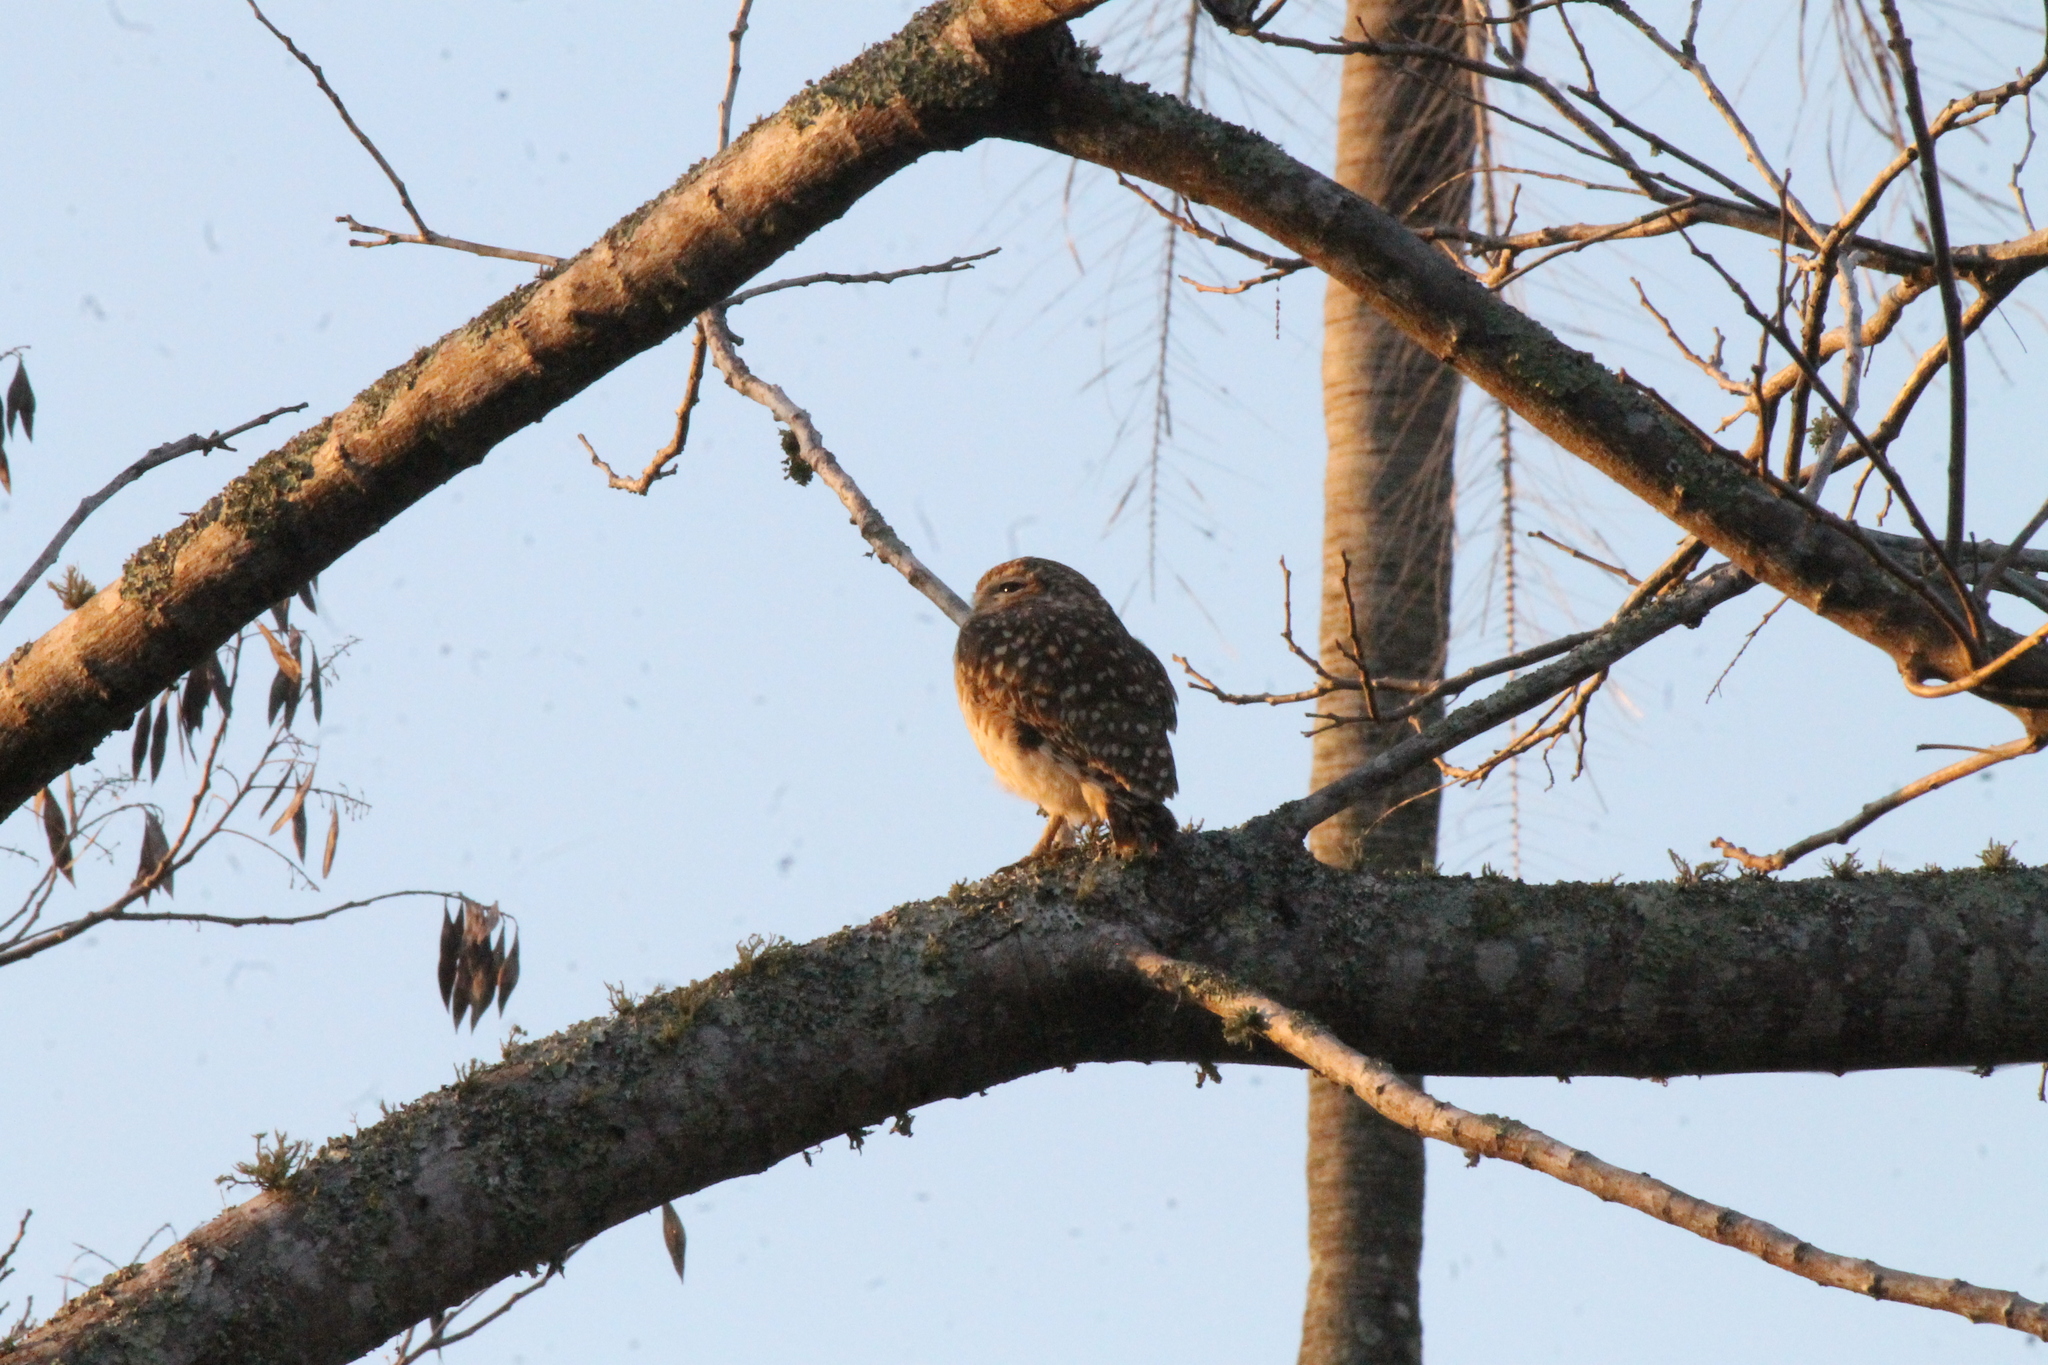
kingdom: Animalia
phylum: Chordata
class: Aves
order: Strigiformes
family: Strigidae
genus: Athene
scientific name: Athene cunicularia
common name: Burrowing owl
